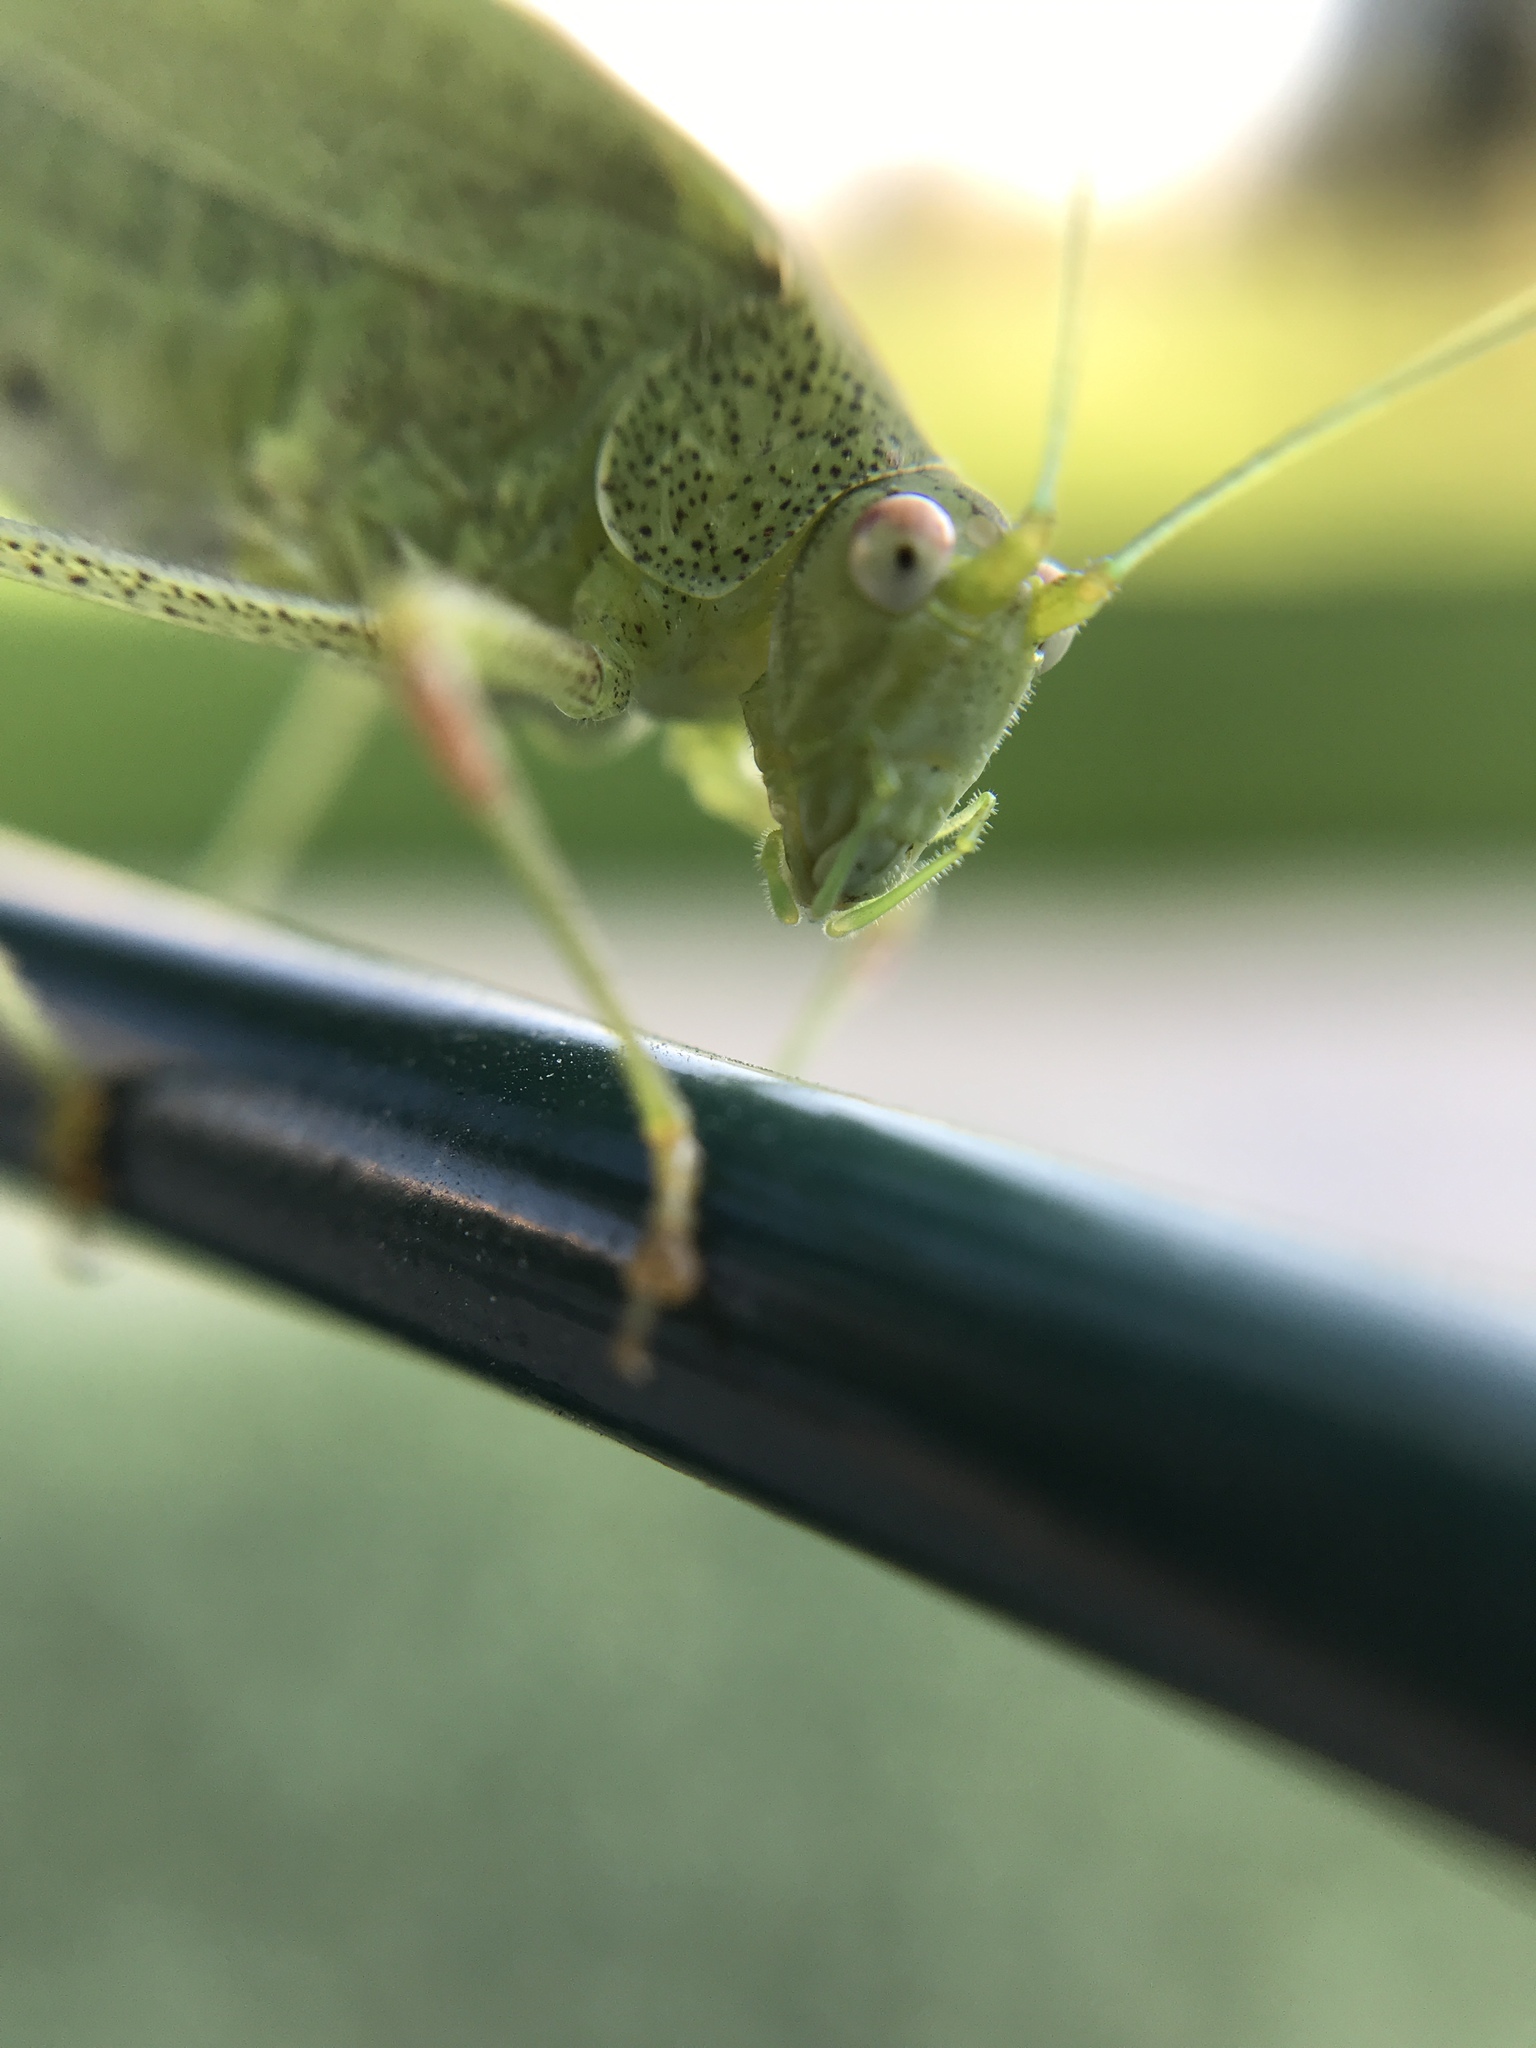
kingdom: Animalia
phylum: Arthropoda
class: Insecta
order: Orthoptera
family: Tettigoniidae
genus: Phaneroptera
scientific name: Phaneroptera nana
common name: Southern sickle bush-cricket
